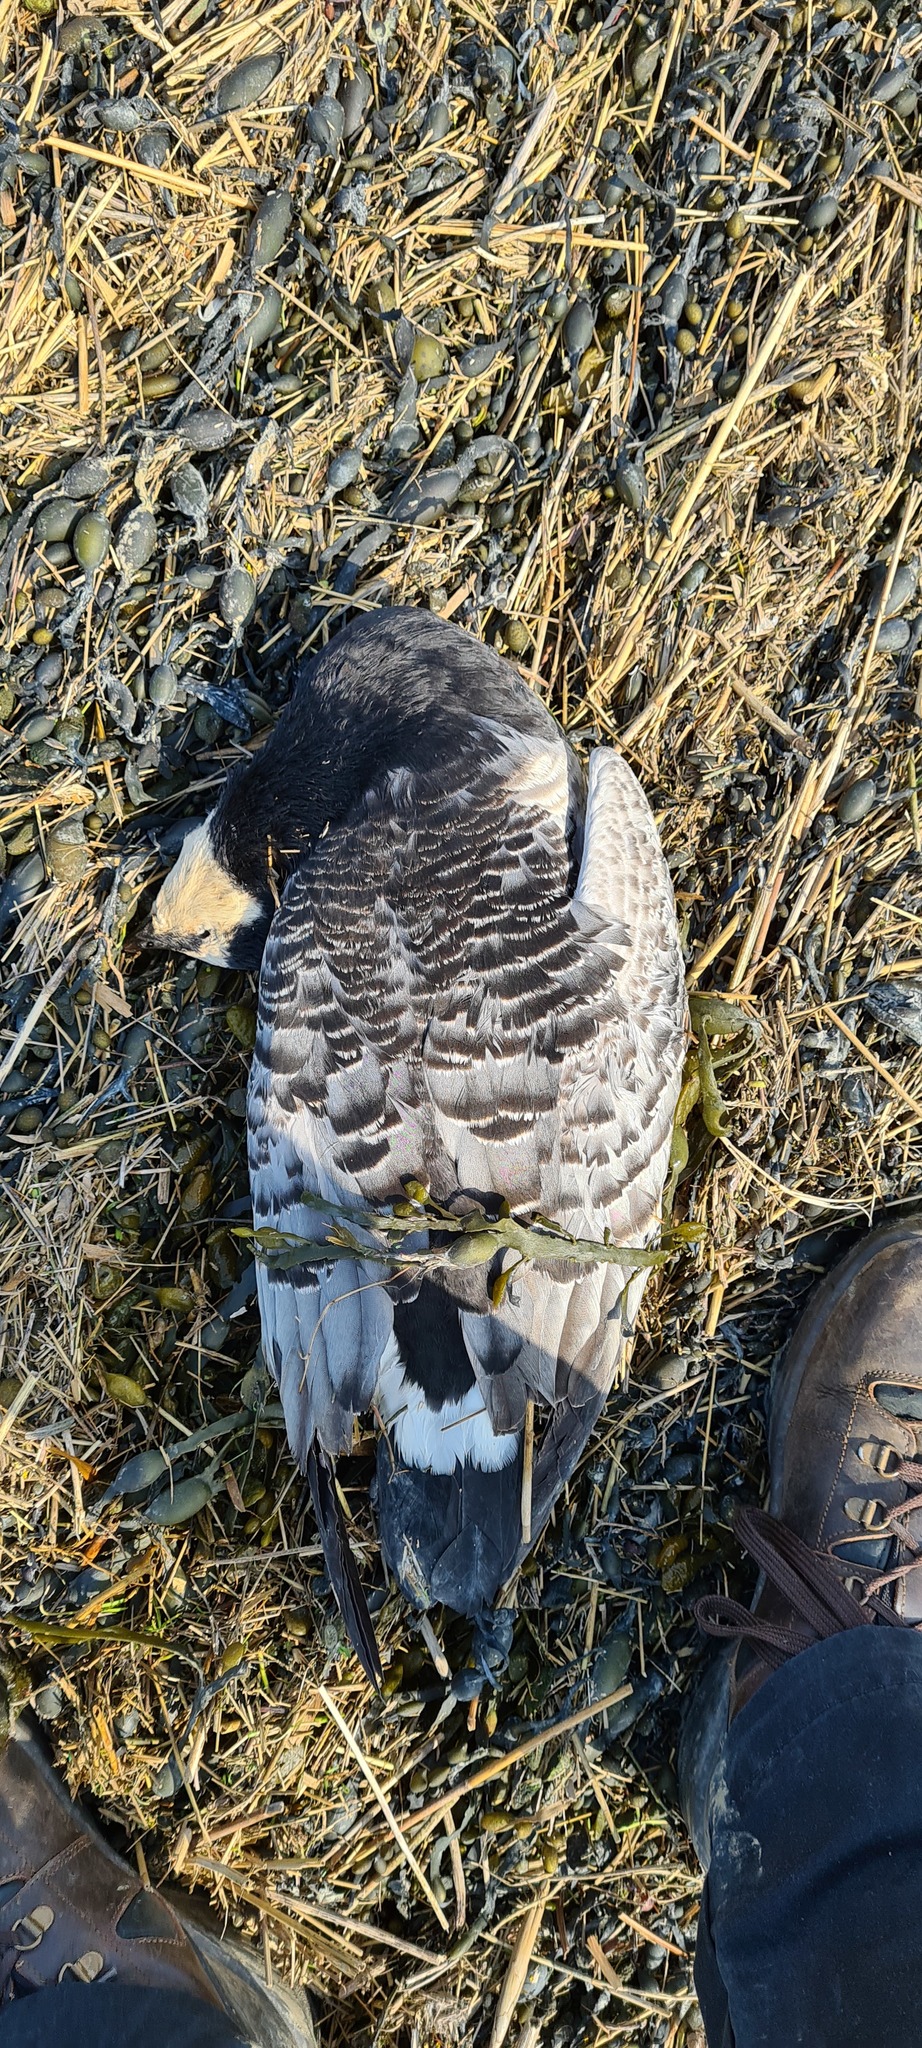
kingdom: Animalia
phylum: Chordata
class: Aves
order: Anseriformes
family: Anatidae
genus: Branta
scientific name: Branta leucopsis
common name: Barnacle goose
